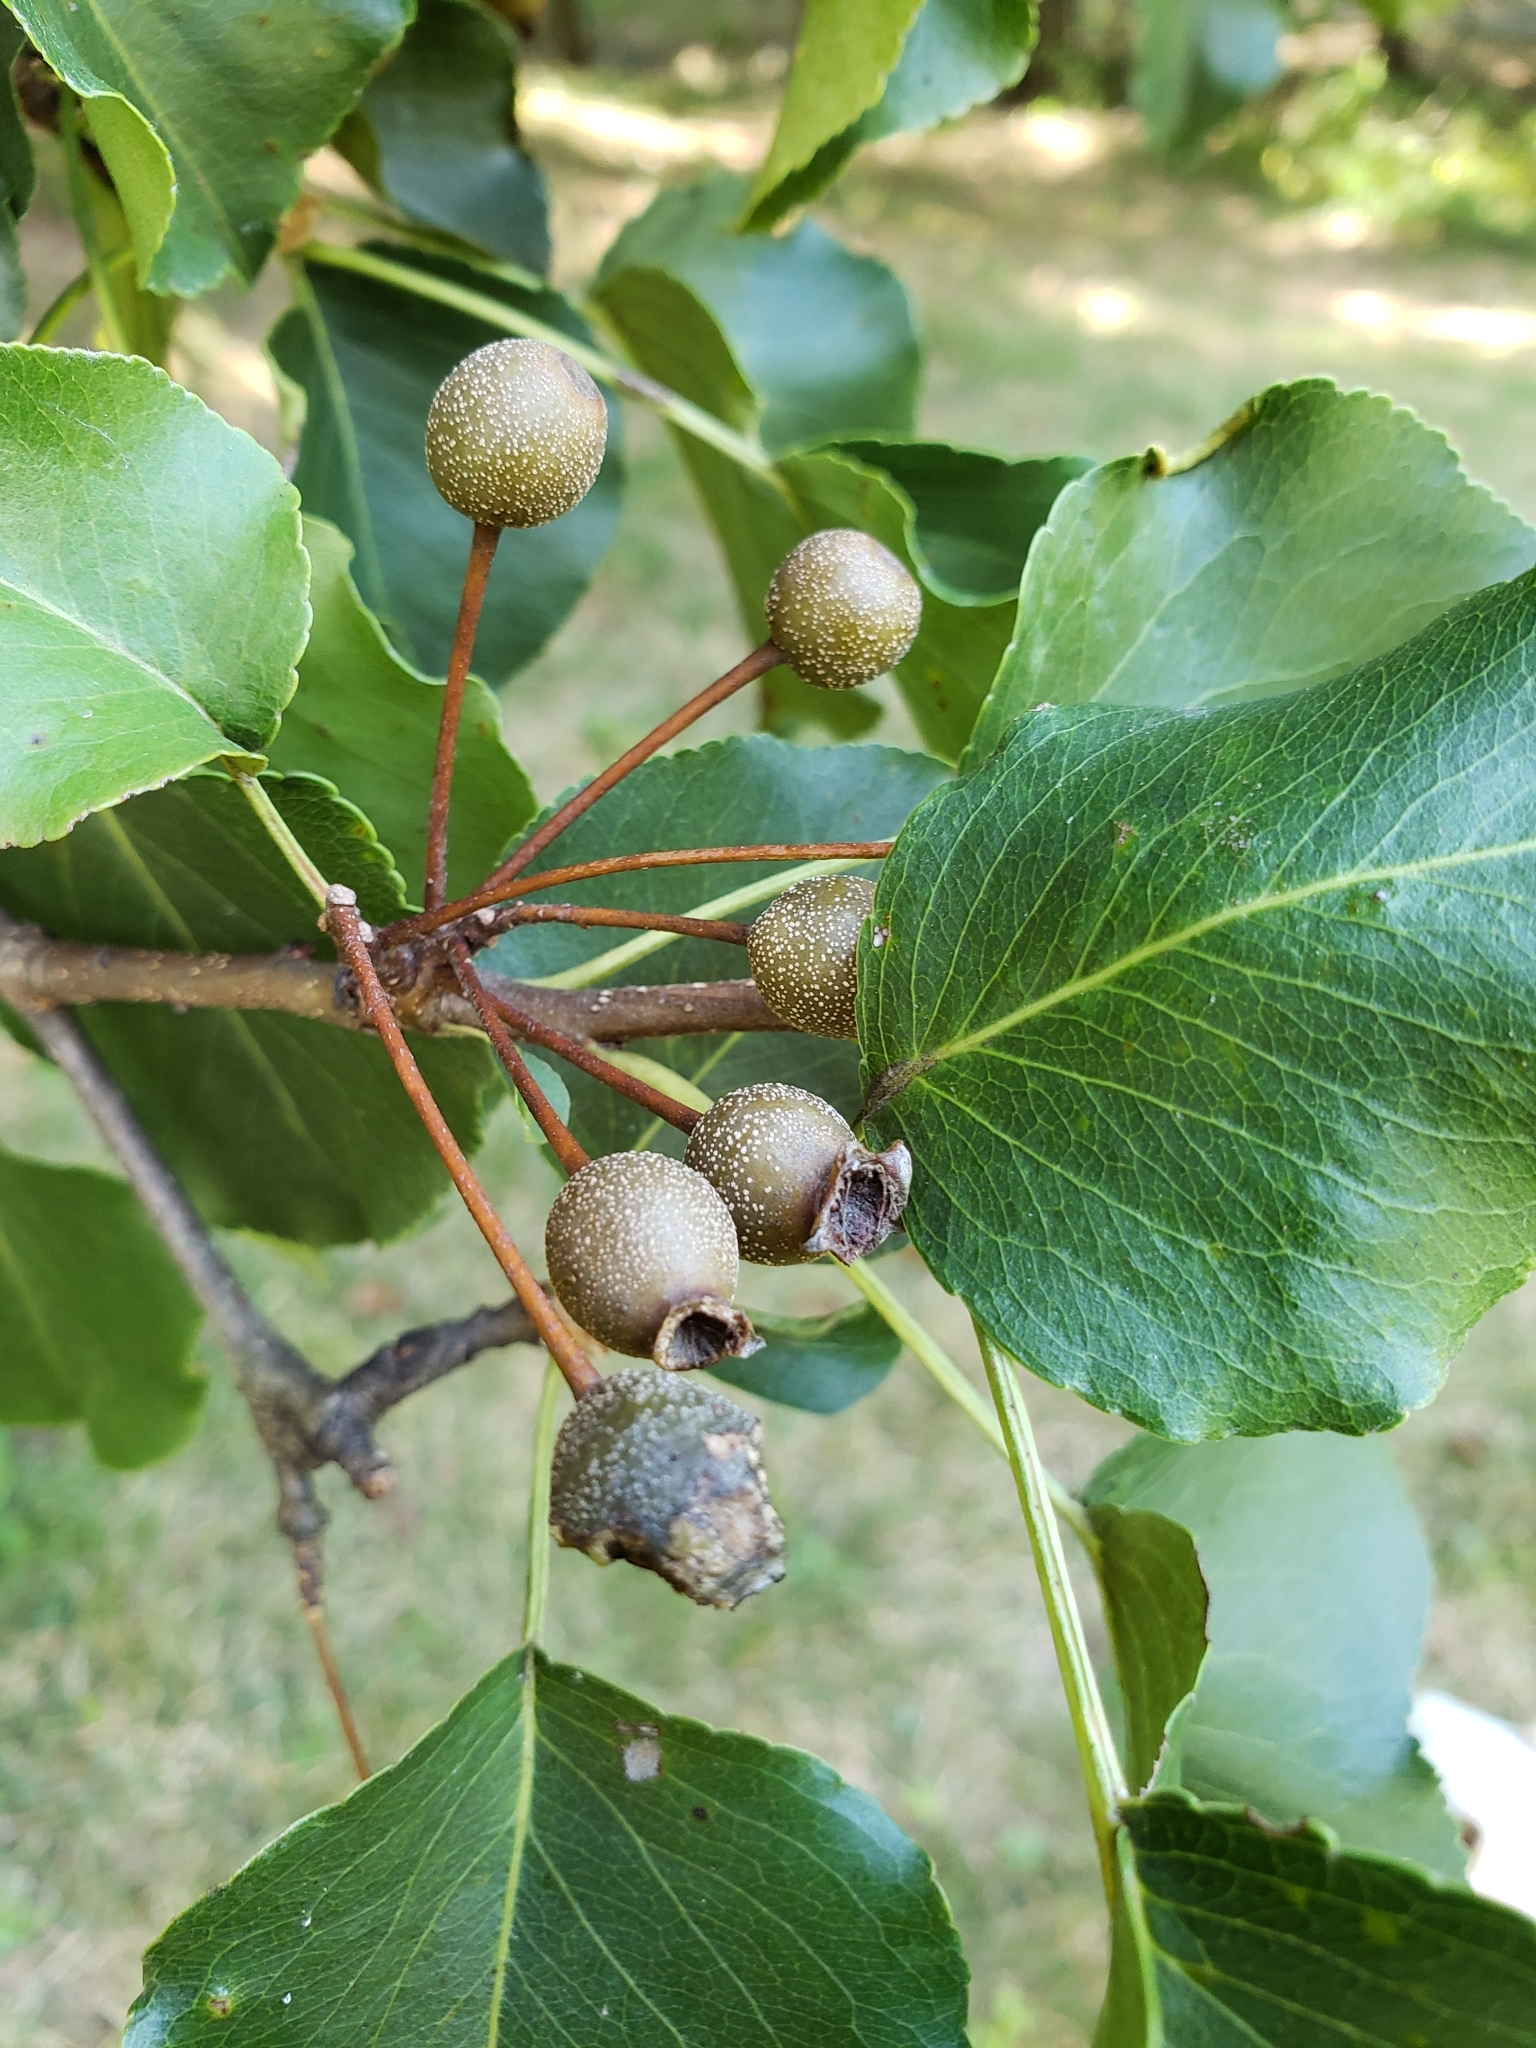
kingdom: Plantae
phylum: Tracheophyta
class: Magnoliopsida
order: Rosales
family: Rosaceae
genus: Pyrus
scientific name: Pyrus calleryana
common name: Callery pear
